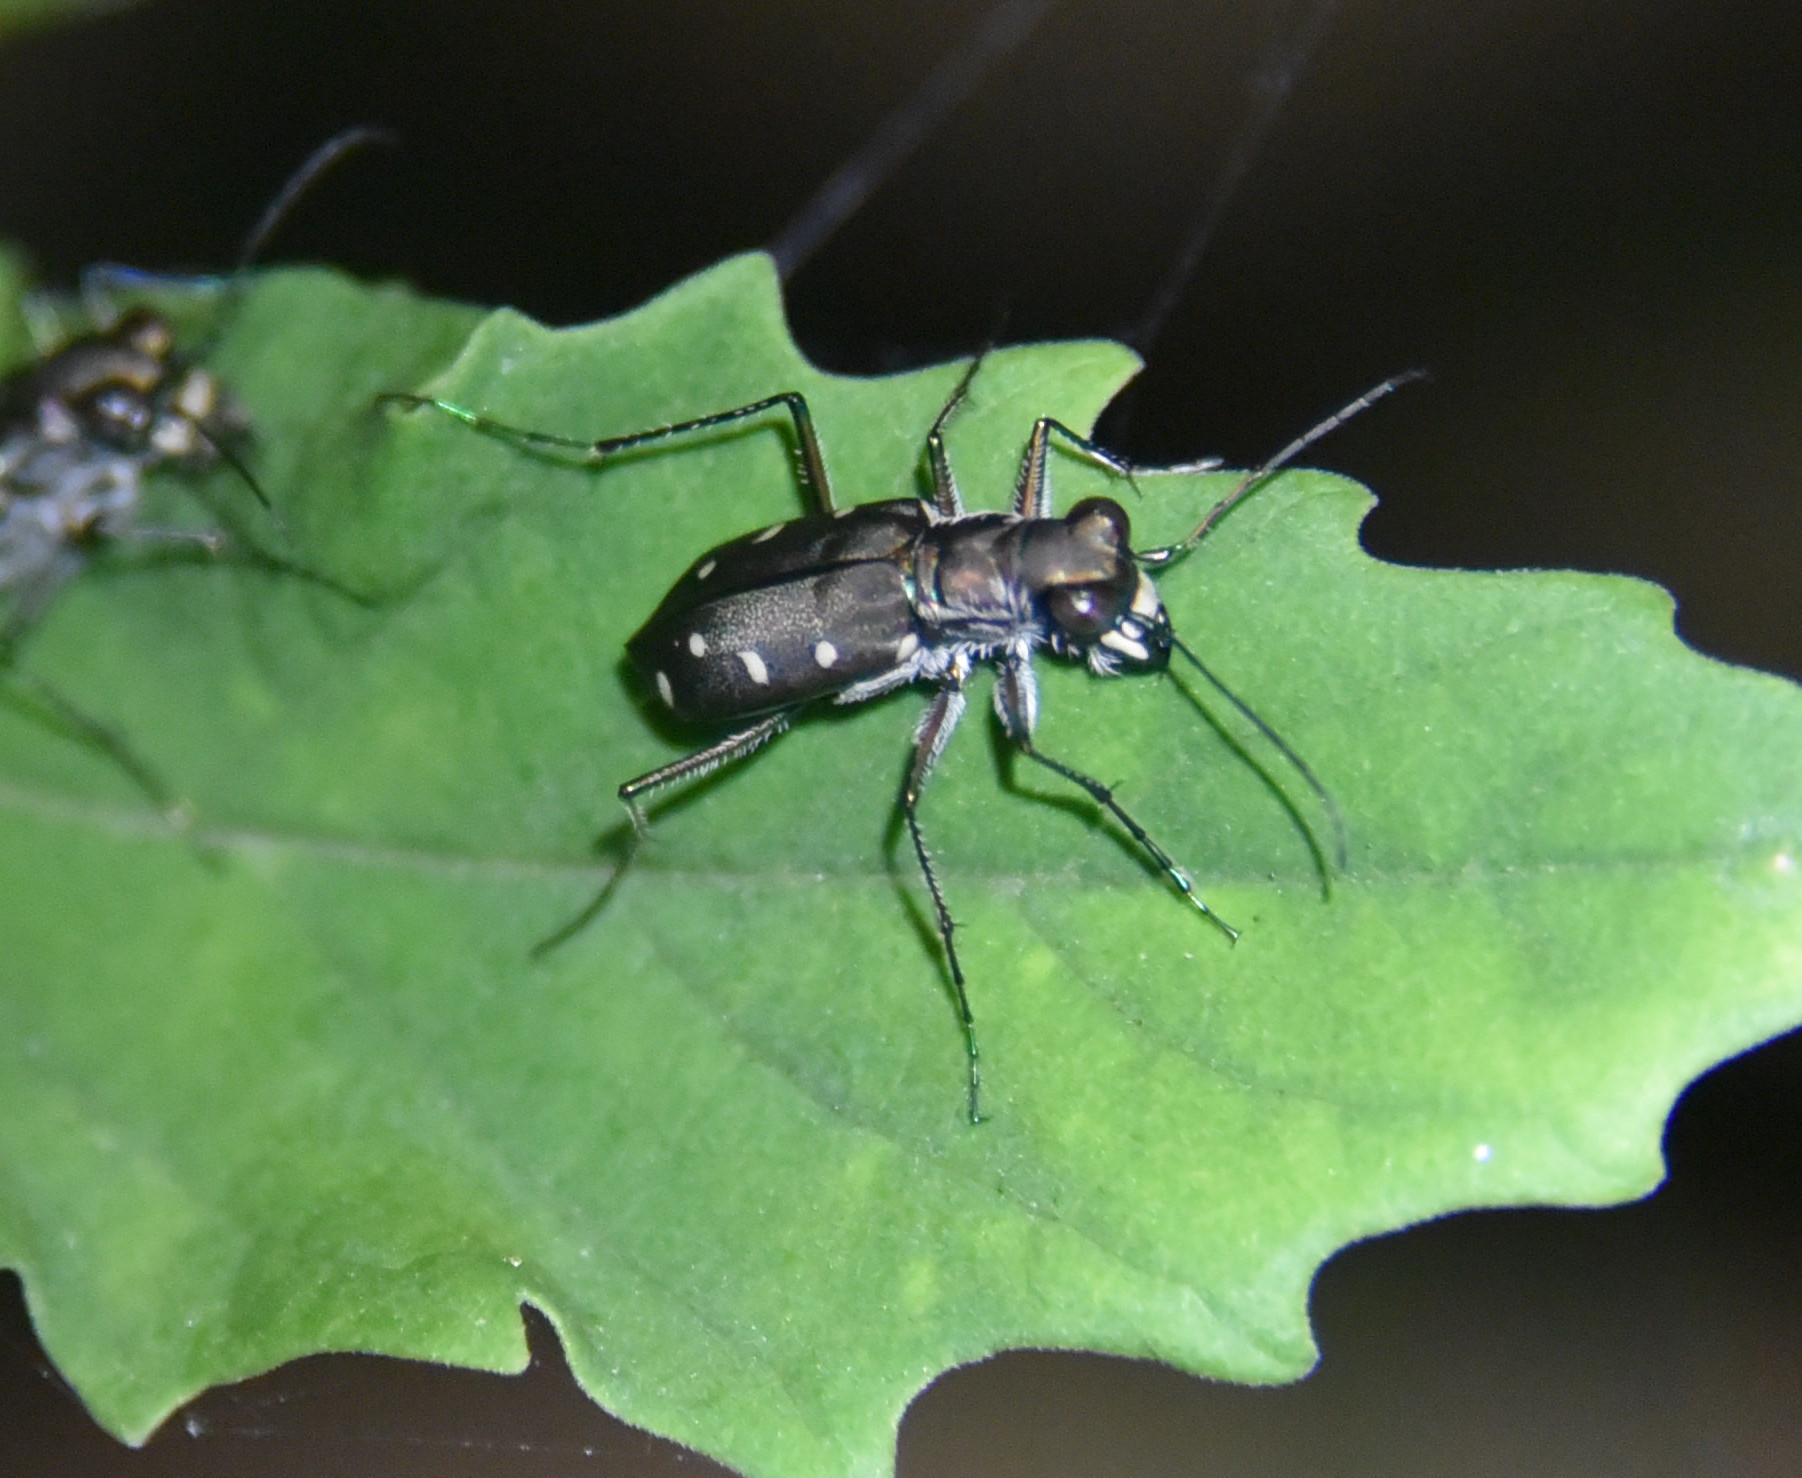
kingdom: Animalia
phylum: Arthropoda
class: Insecta
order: Coleoptera
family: Carabidae
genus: Cicindela
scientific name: Cicindela ocellata
